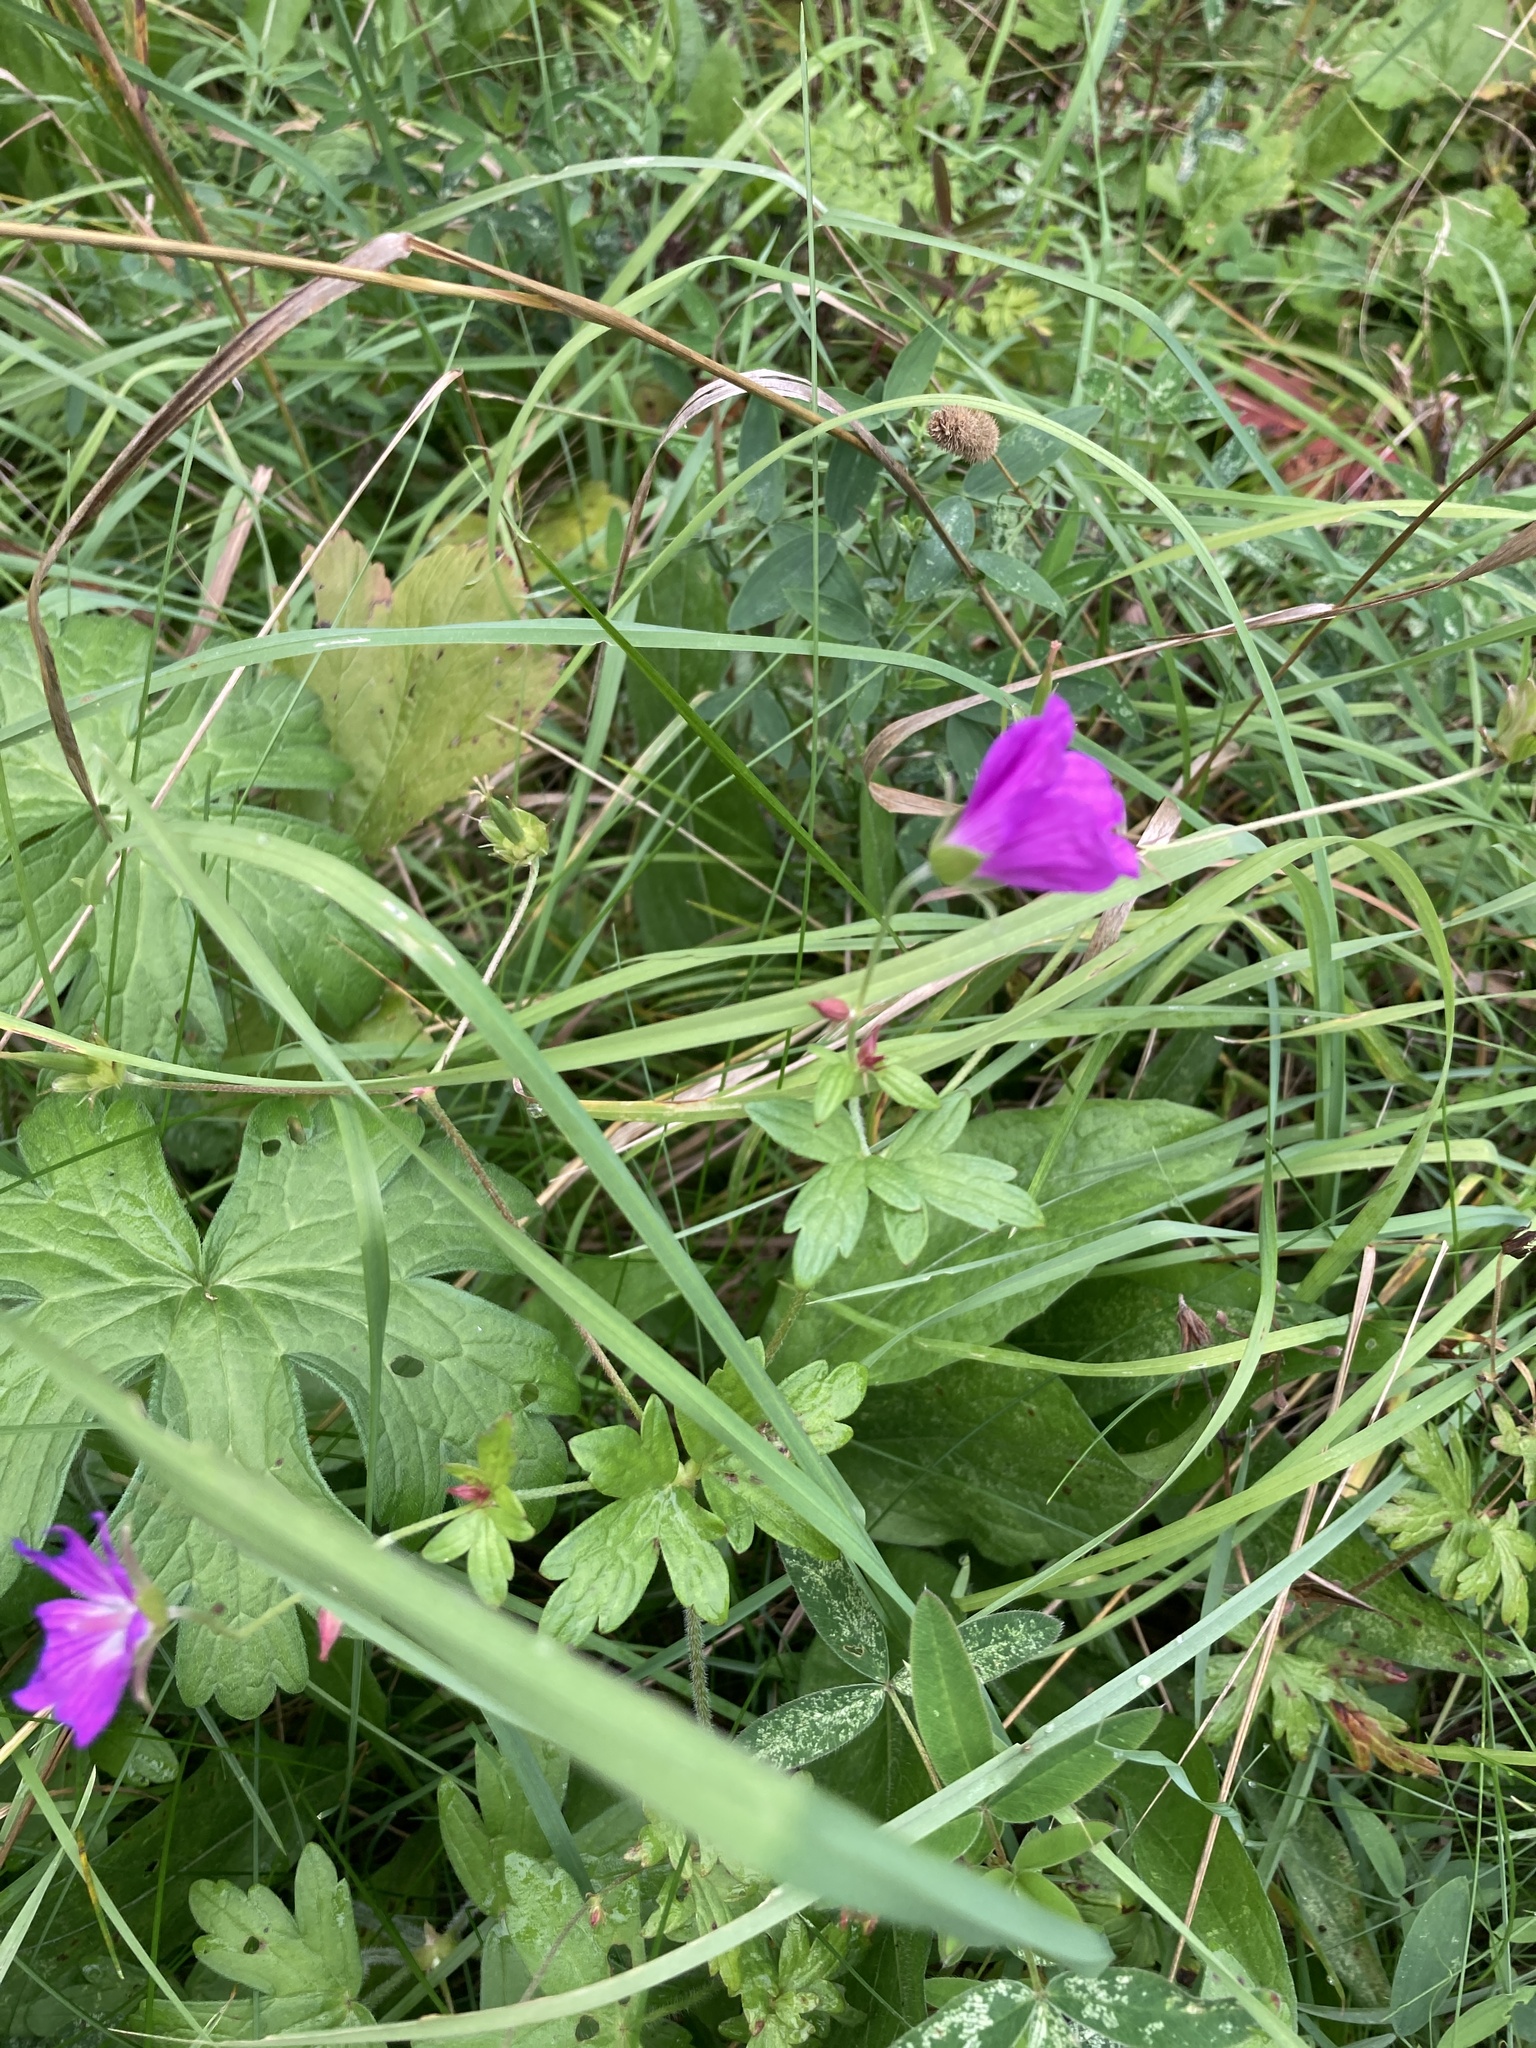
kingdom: Plantae
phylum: Tracheophyta
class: Magnoliopsida
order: Geraniales
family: Geraniaceae
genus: Geranium
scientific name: Geranium palustre
